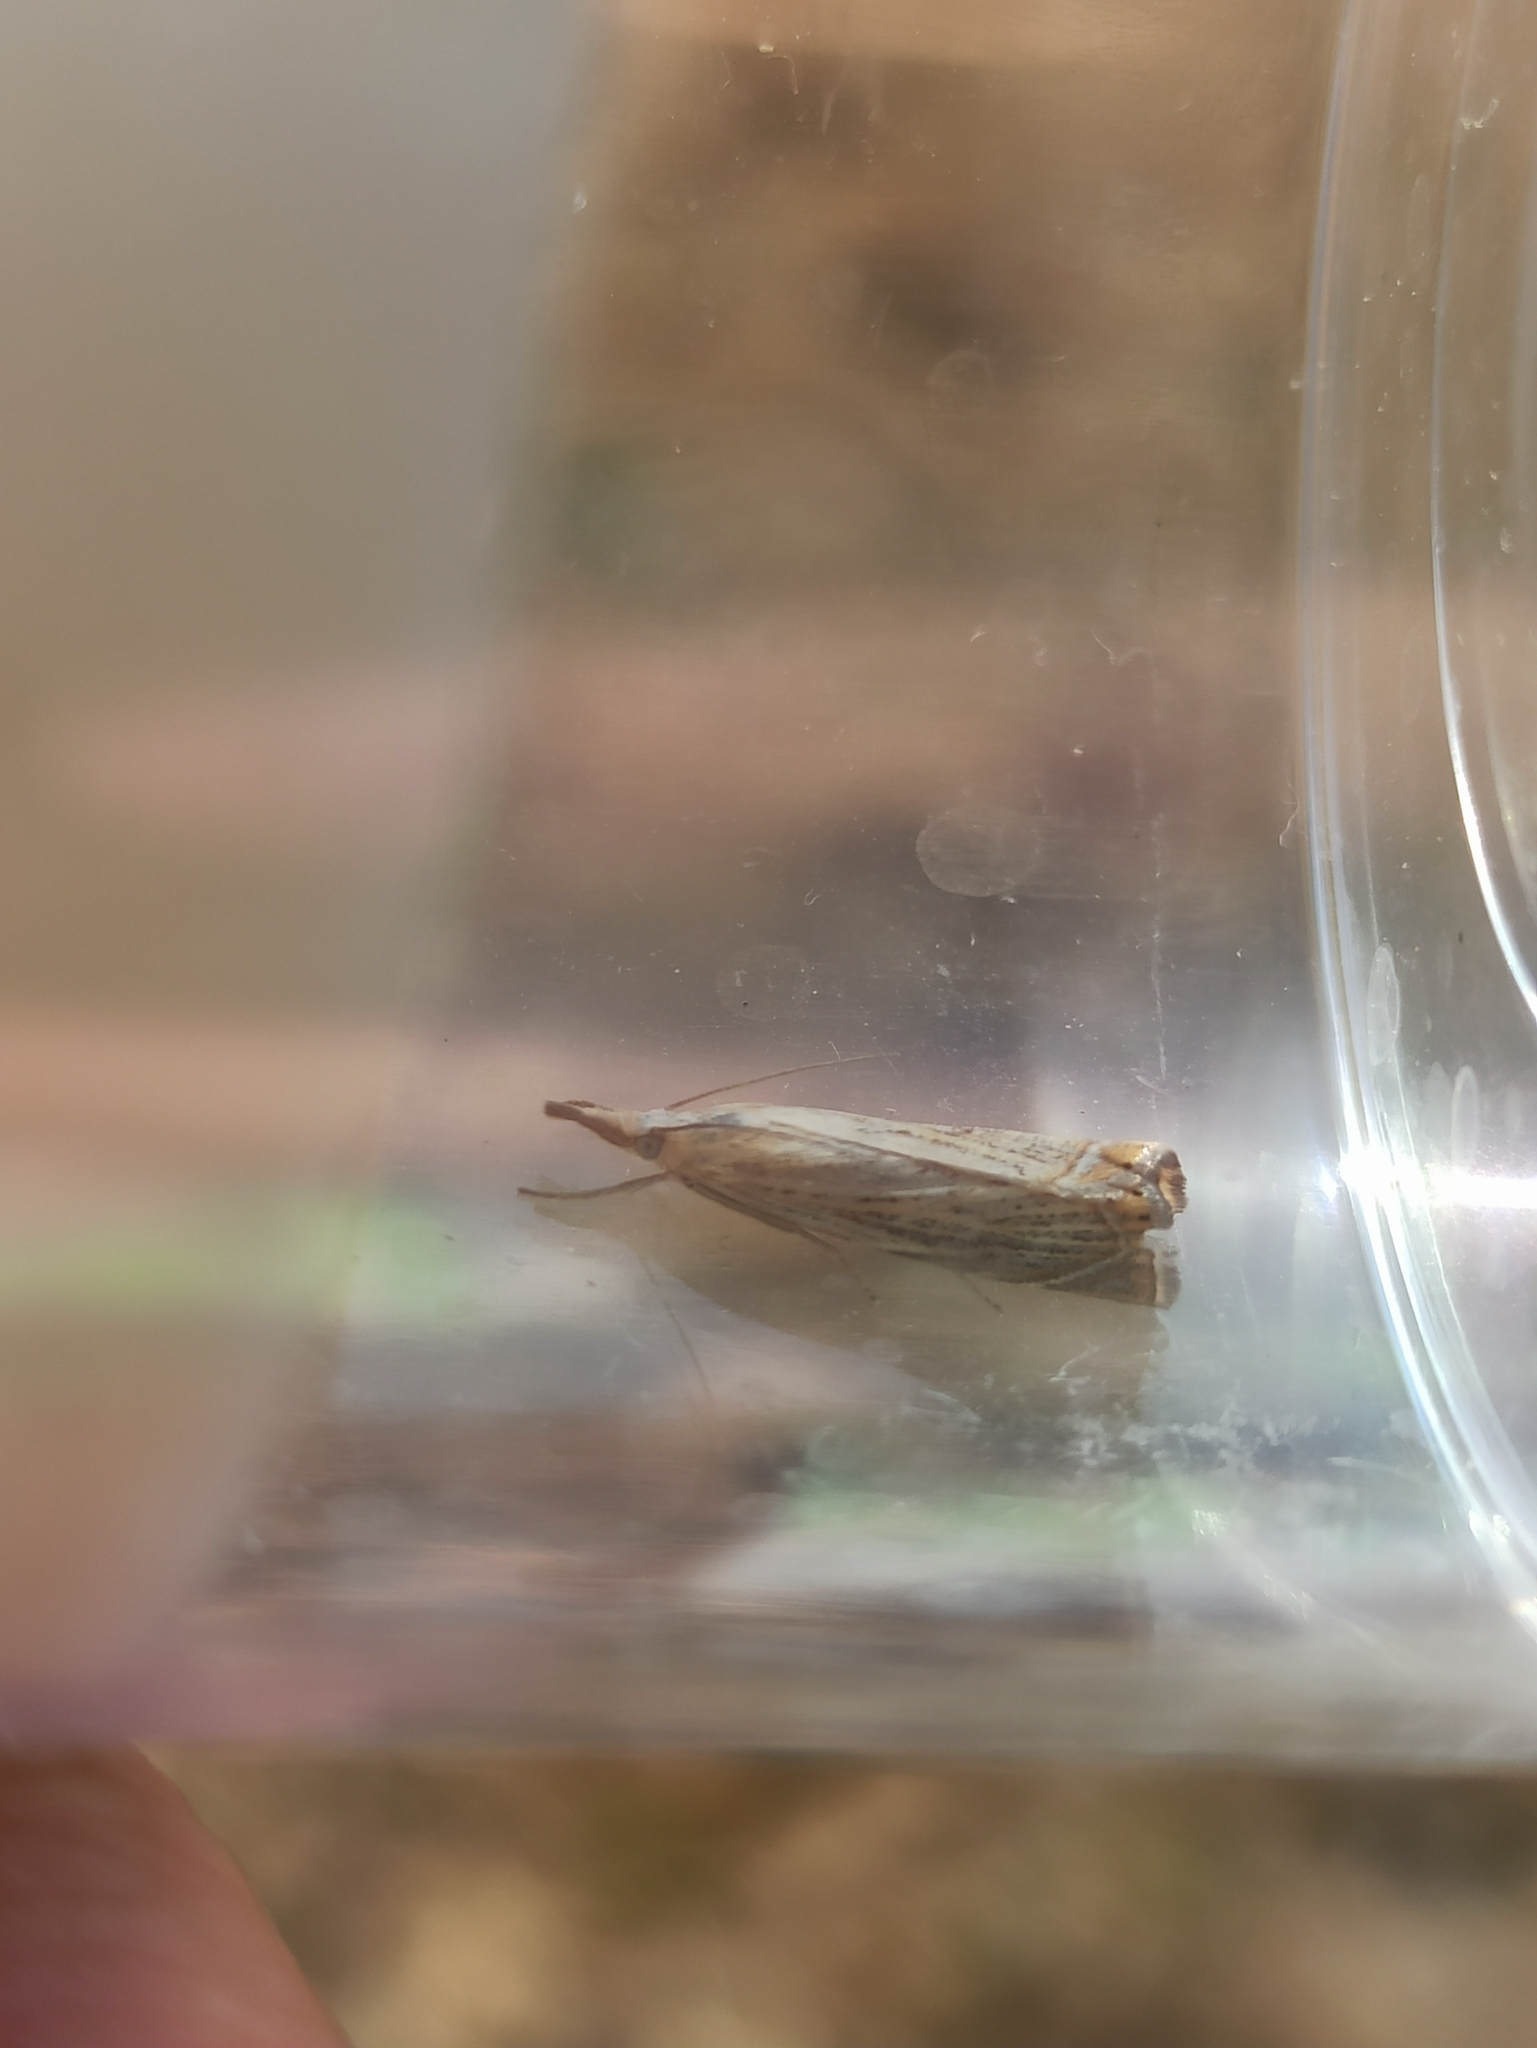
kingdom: Animalia
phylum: Arthropoda
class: Insecta
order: Lepidoptera
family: Crambidae
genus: Chrysoteuchia
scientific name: Chrysoteuchia culmella
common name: Garden grass-veneer
